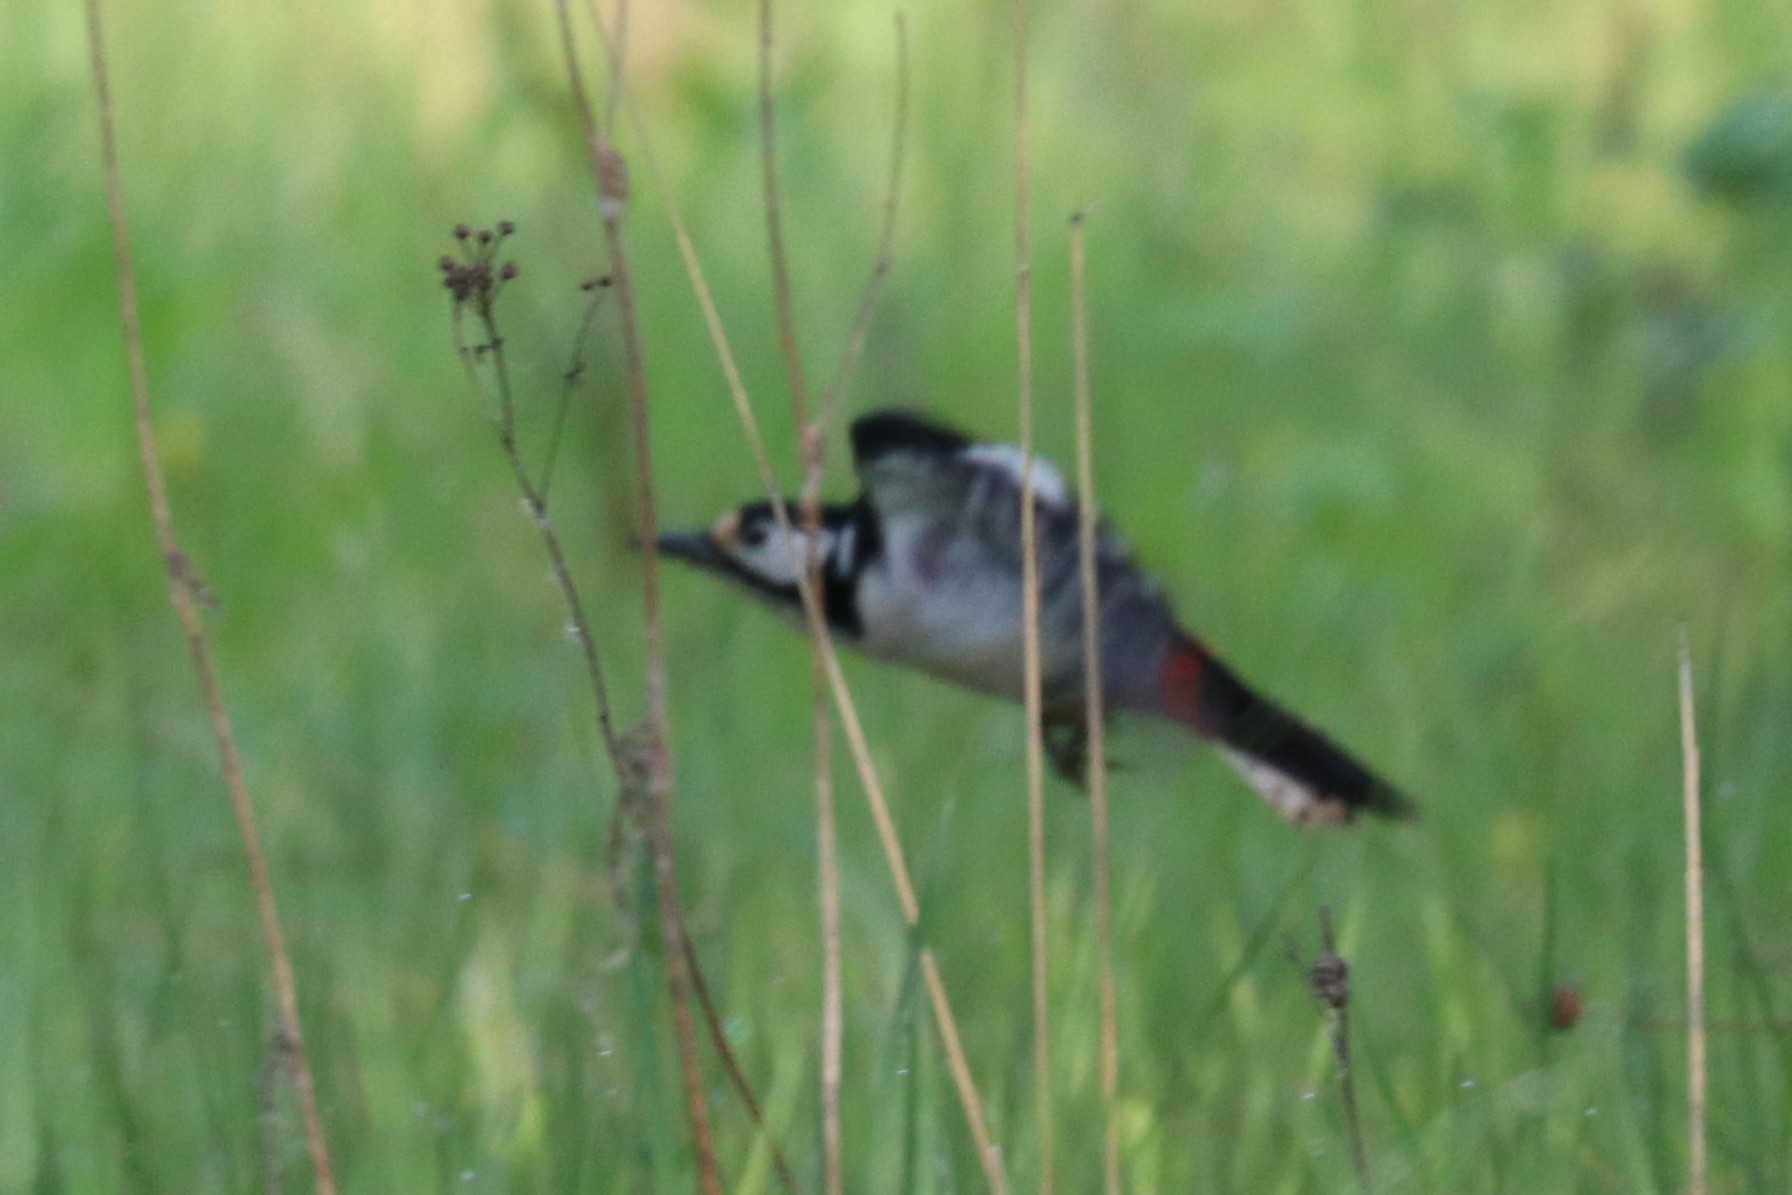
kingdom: Animalia
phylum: Chordata
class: Aves
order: Piciformes
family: Picidae
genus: Dendrocopos
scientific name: Dendrocopos major
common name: Great spotted woodpecker
